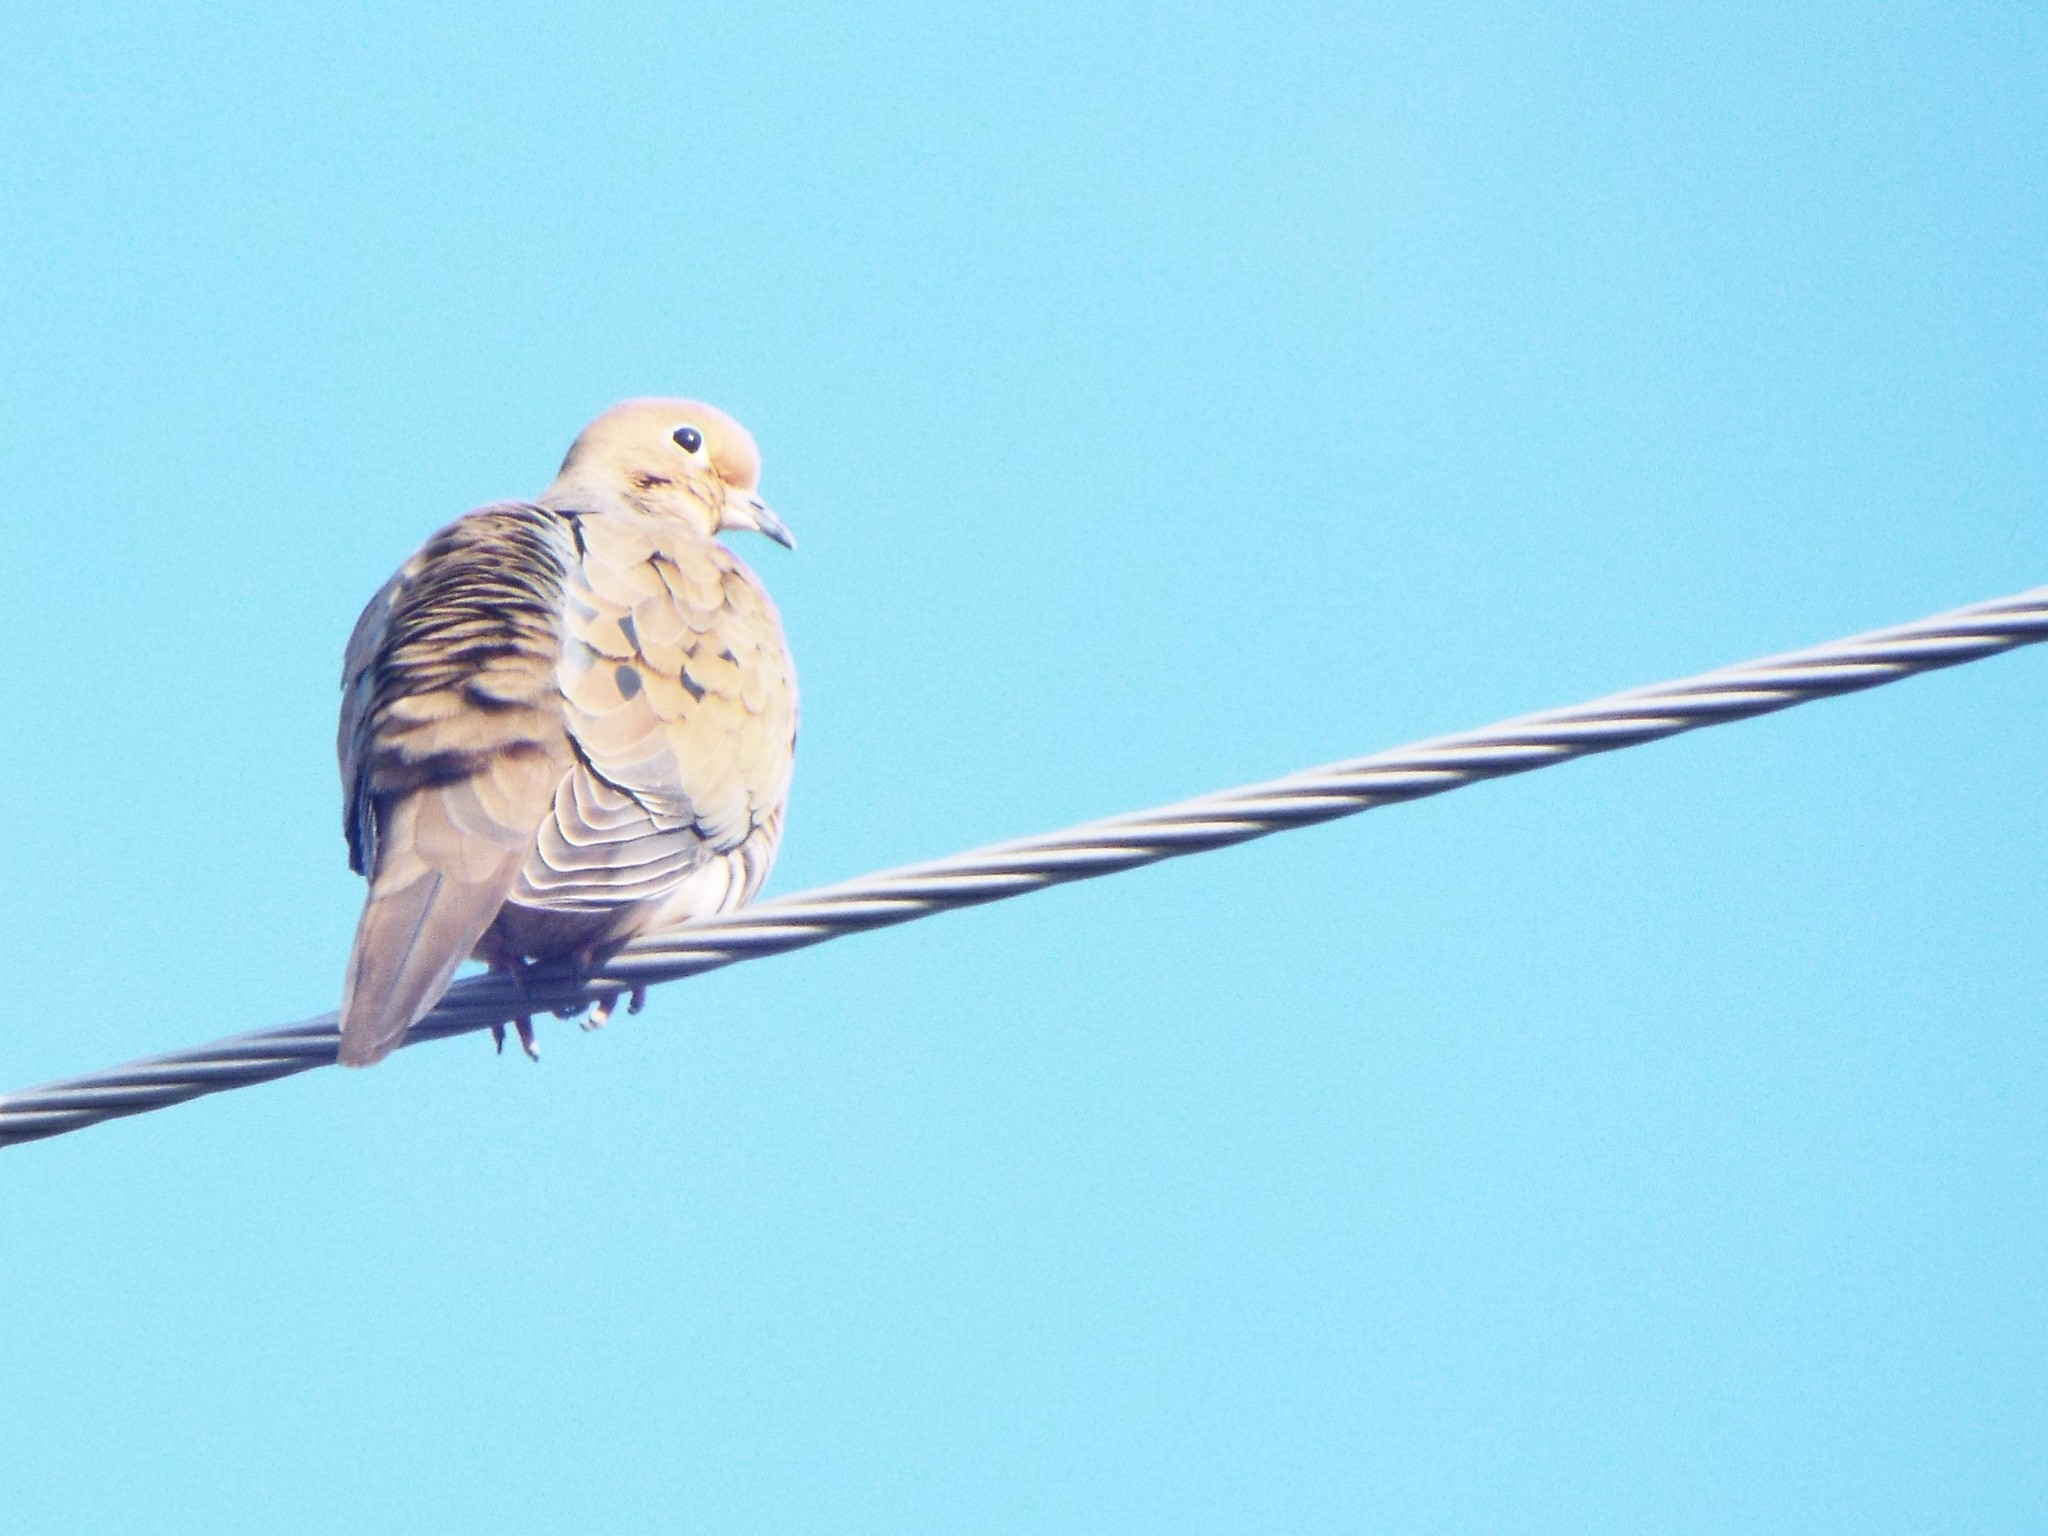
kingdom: Animalia
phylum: Chordata
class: Aves
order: Columbiformes
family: Columbidae
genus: Zenaida
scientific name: Zenaida macroura
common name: Mourning dove
